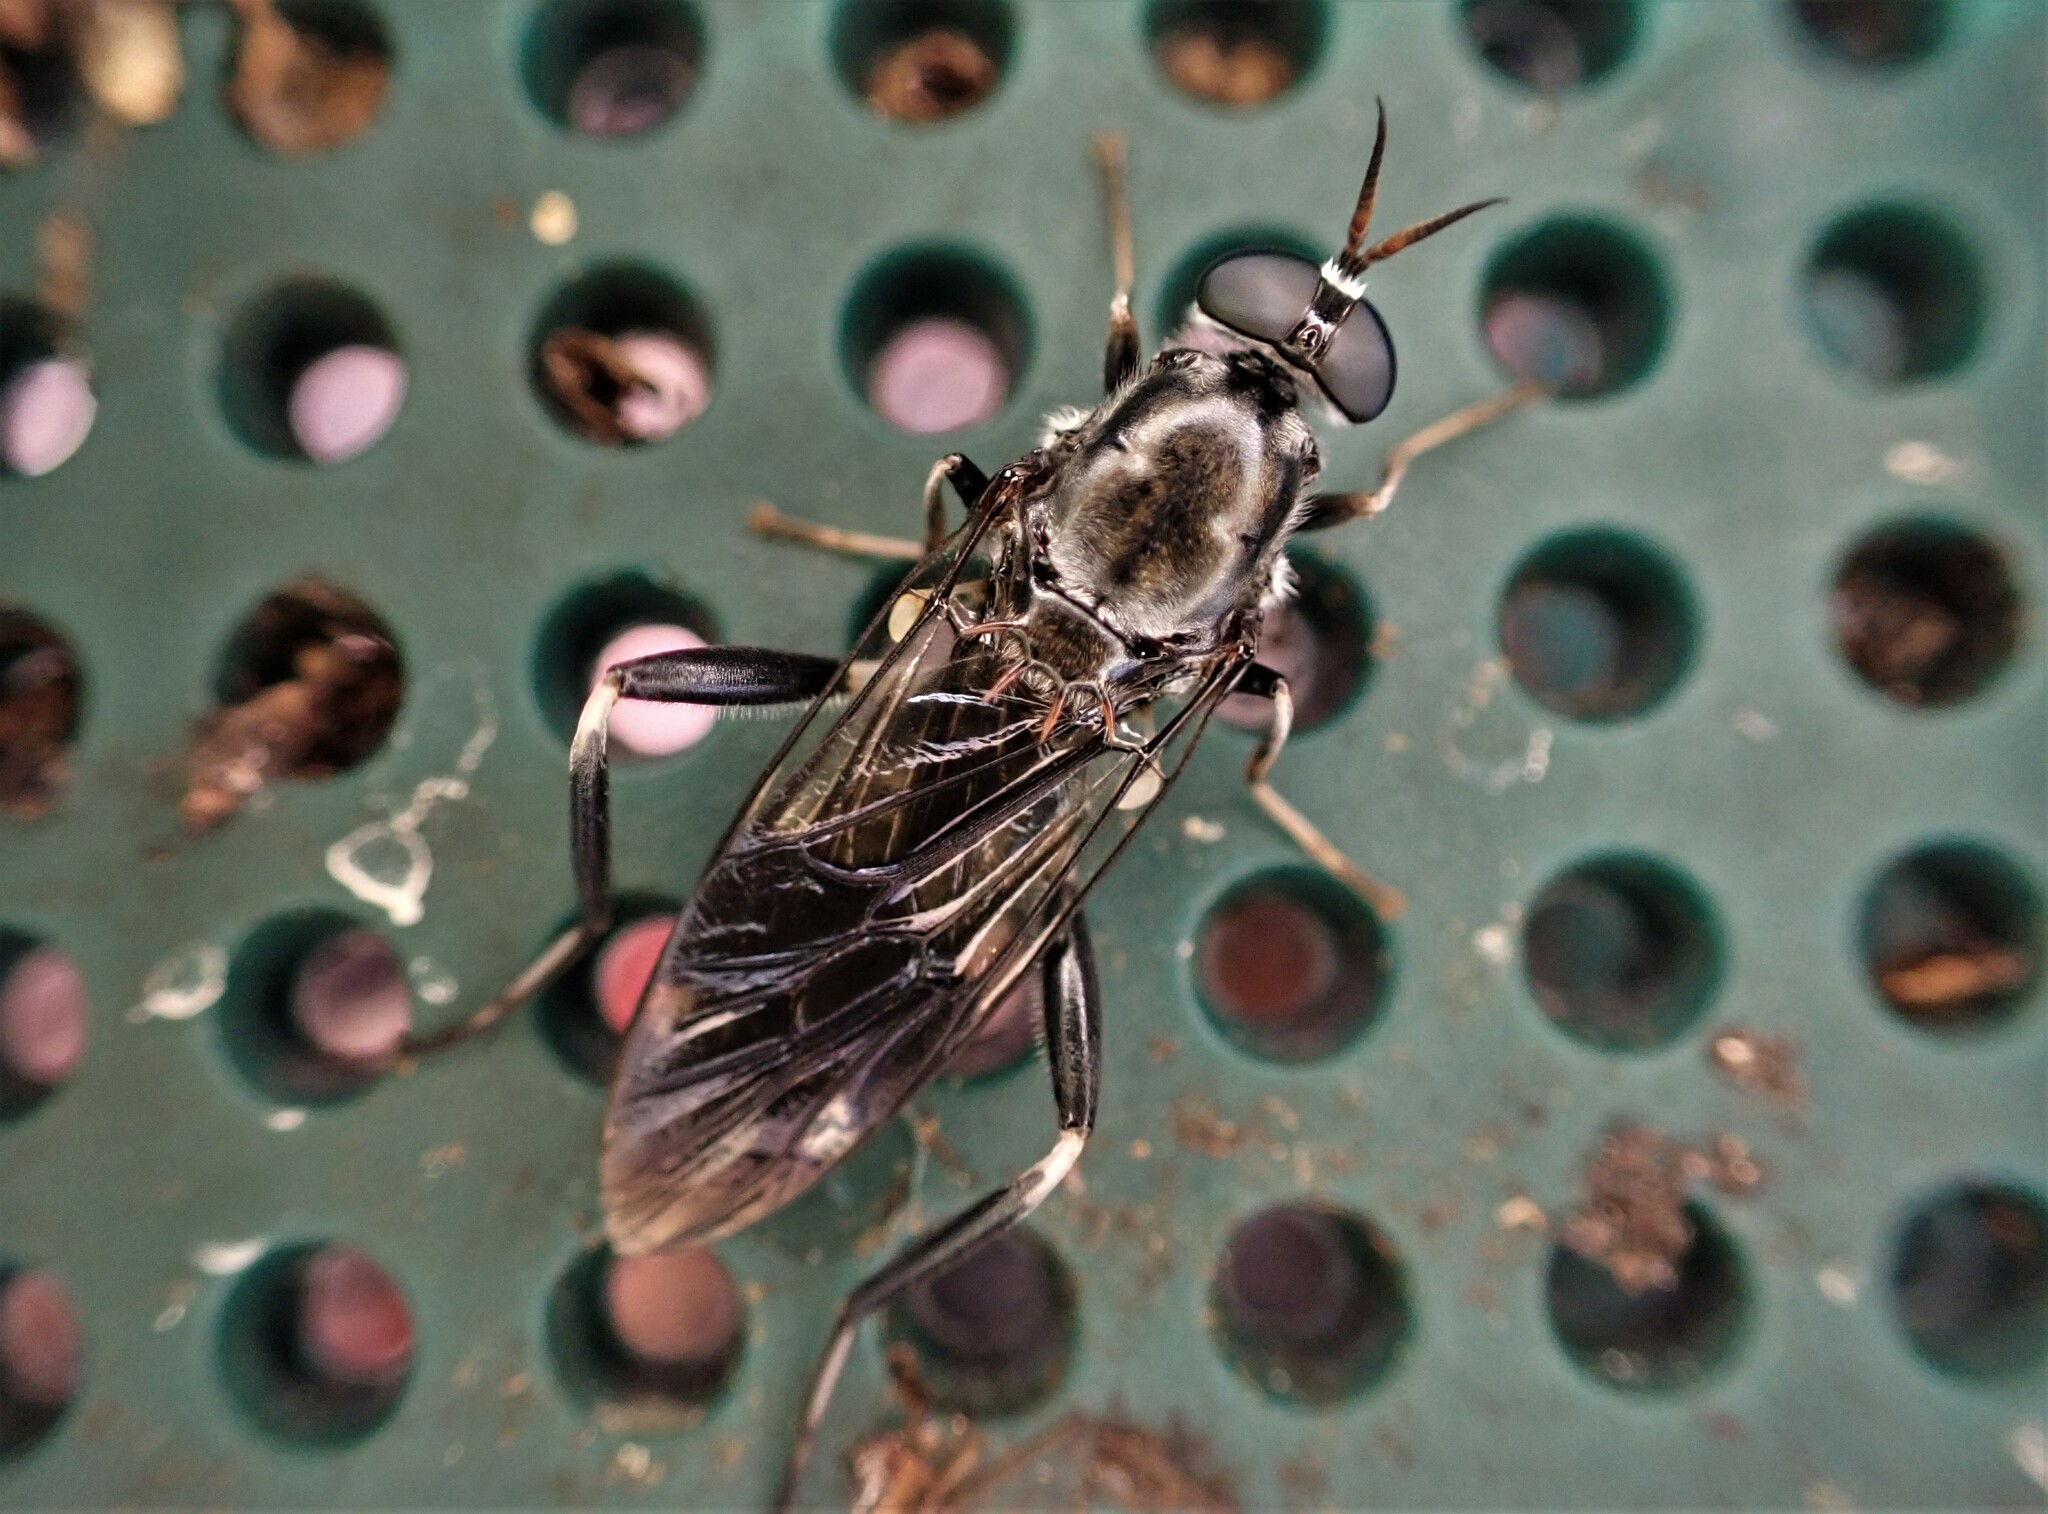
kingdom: Animalia
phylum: Arthropoda
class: Insecta
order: Diptera
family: Stratiomyidae
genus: Exaireta
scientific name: Exaireta spinigera
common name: Blue soldier fly
